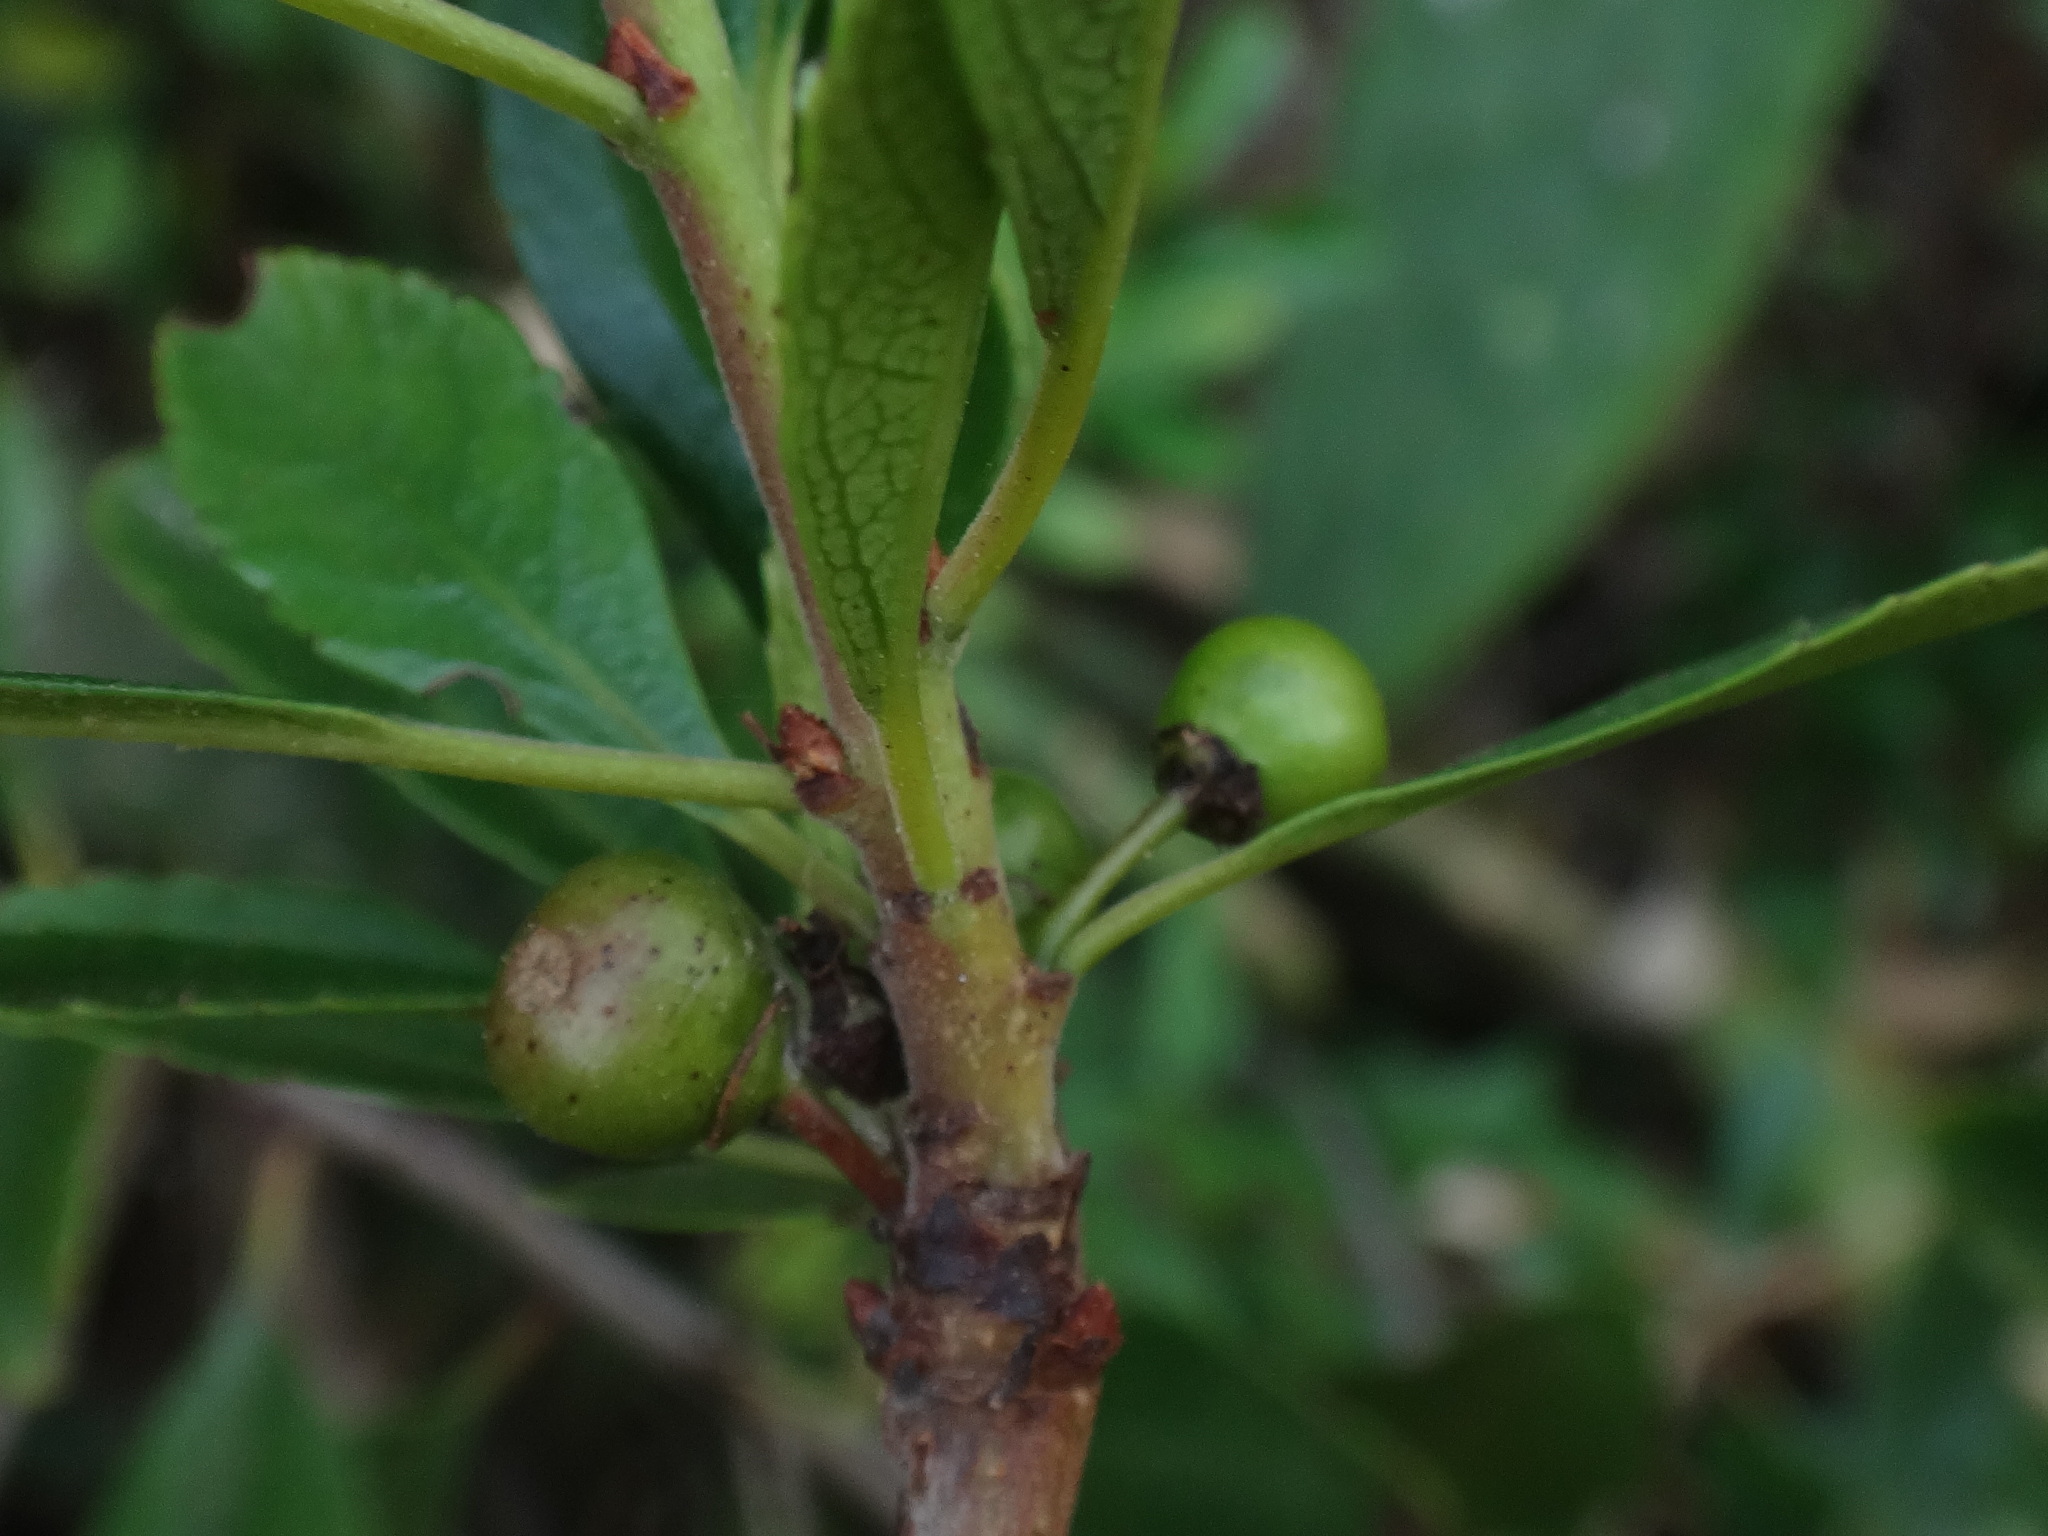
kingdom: Plantae
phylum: Tracheophyta
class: Magnoliopsida
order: Rosales
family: Rhamnaceae
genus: Rhamnus
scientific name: Rhamnus crenulata
